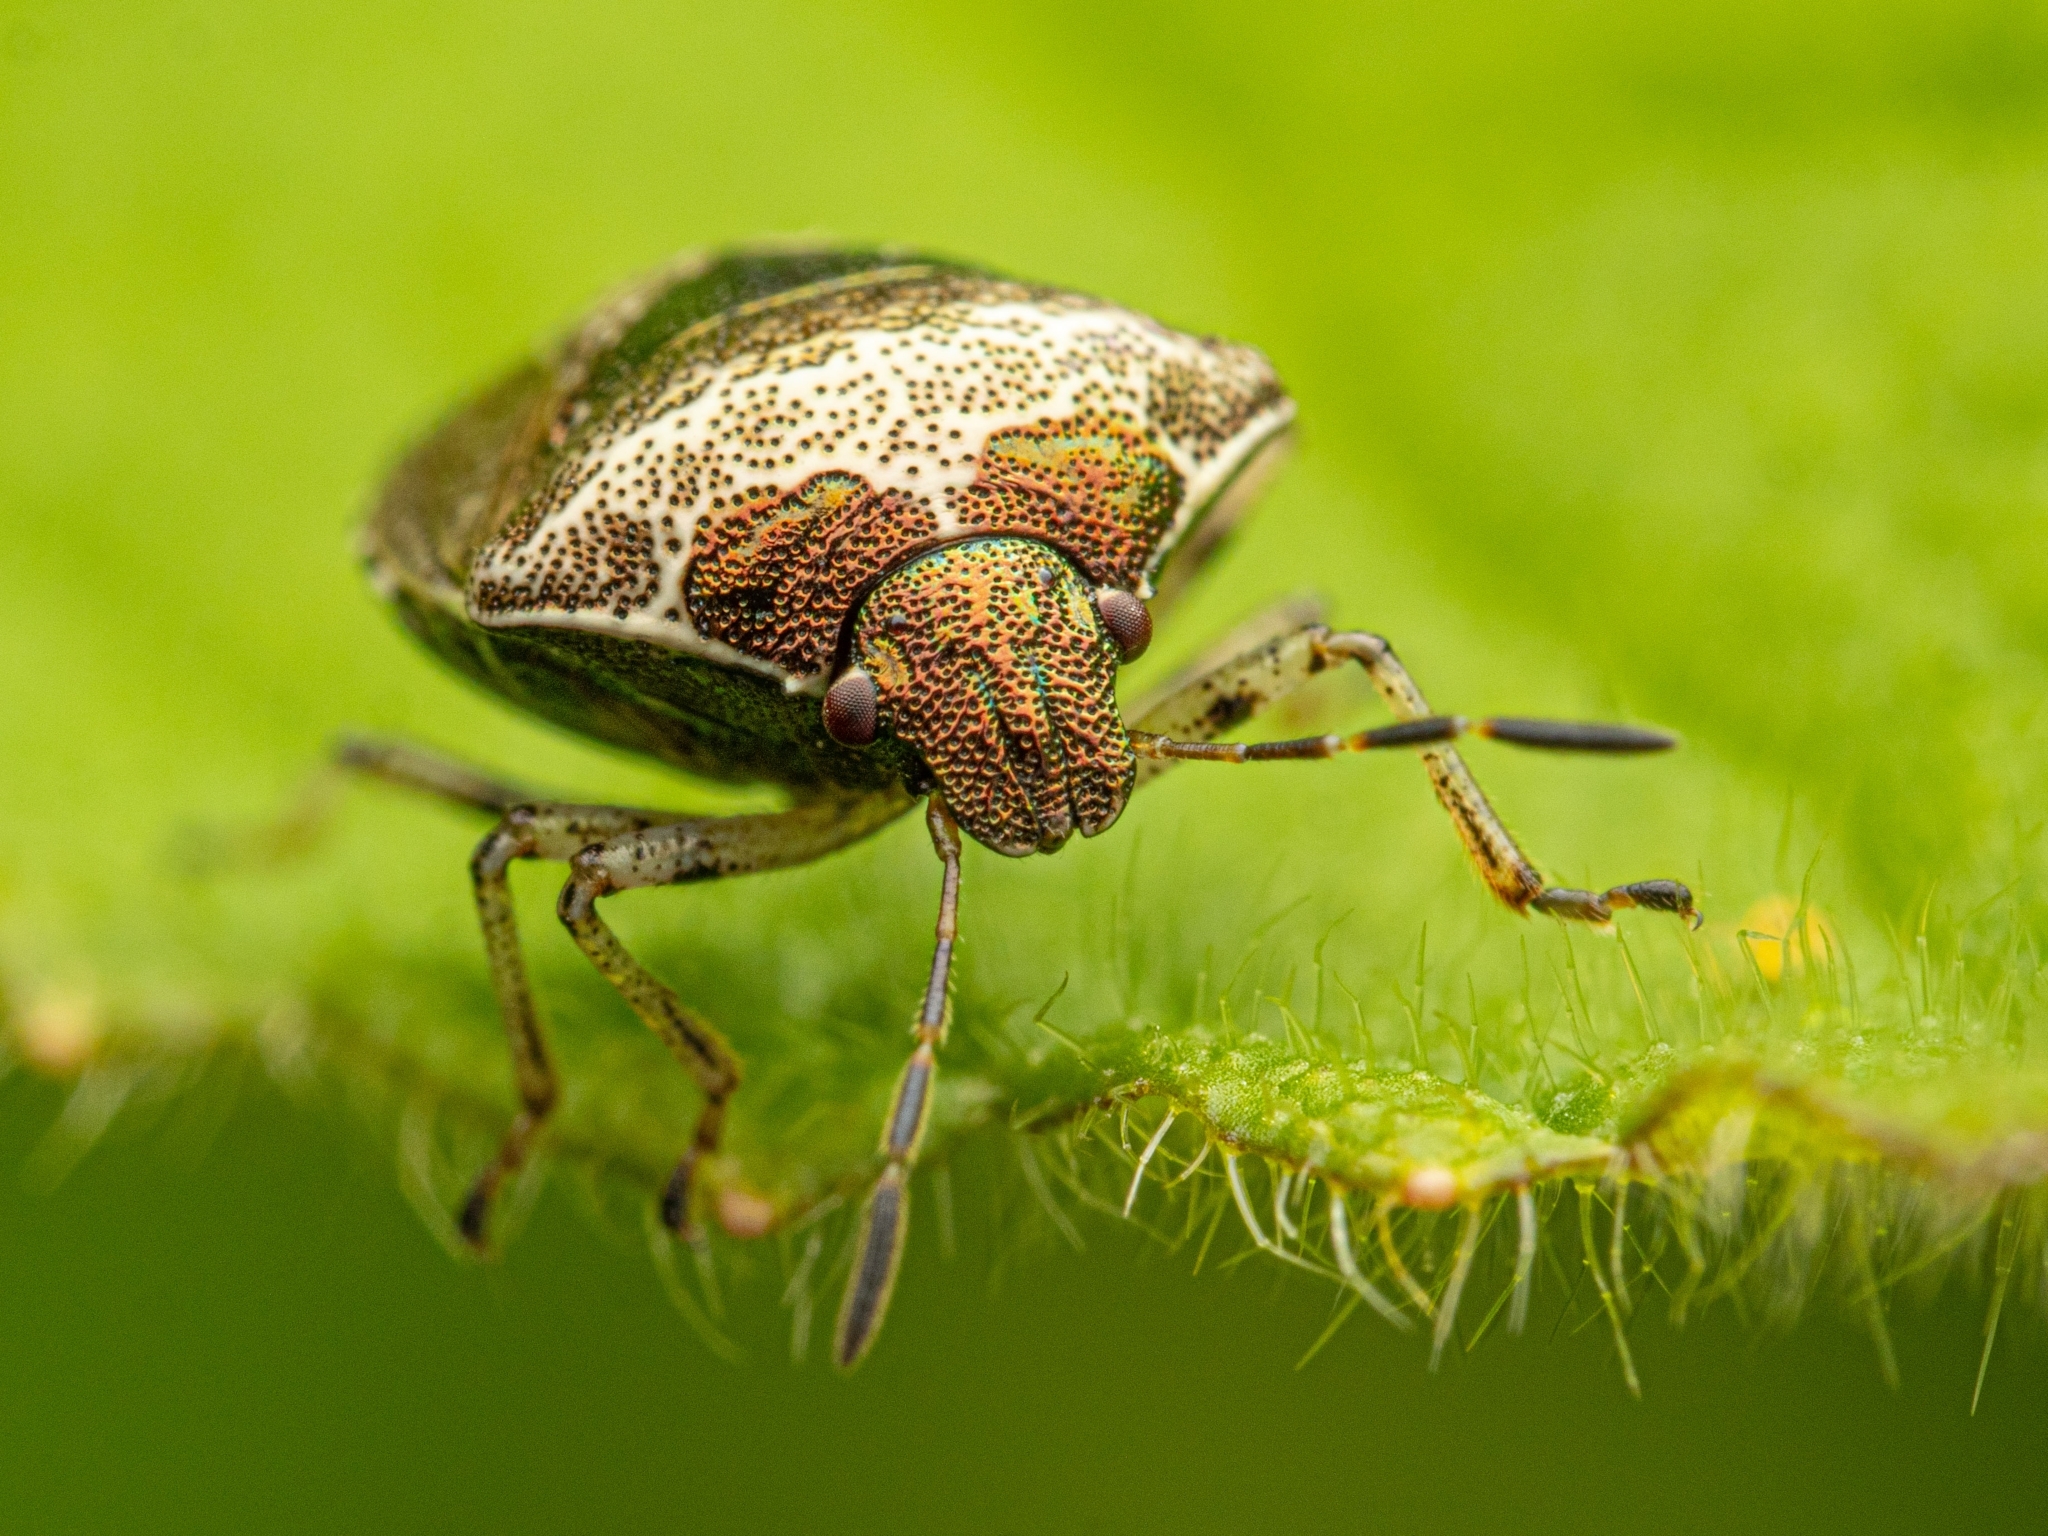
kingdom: Animalia
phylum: Arthropoda
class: Insecta
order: Hemiptera
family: Pentatomidae
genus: Eysarcoris
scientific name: Eysarcoris venustissimus
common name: Woundwort shieldbug
